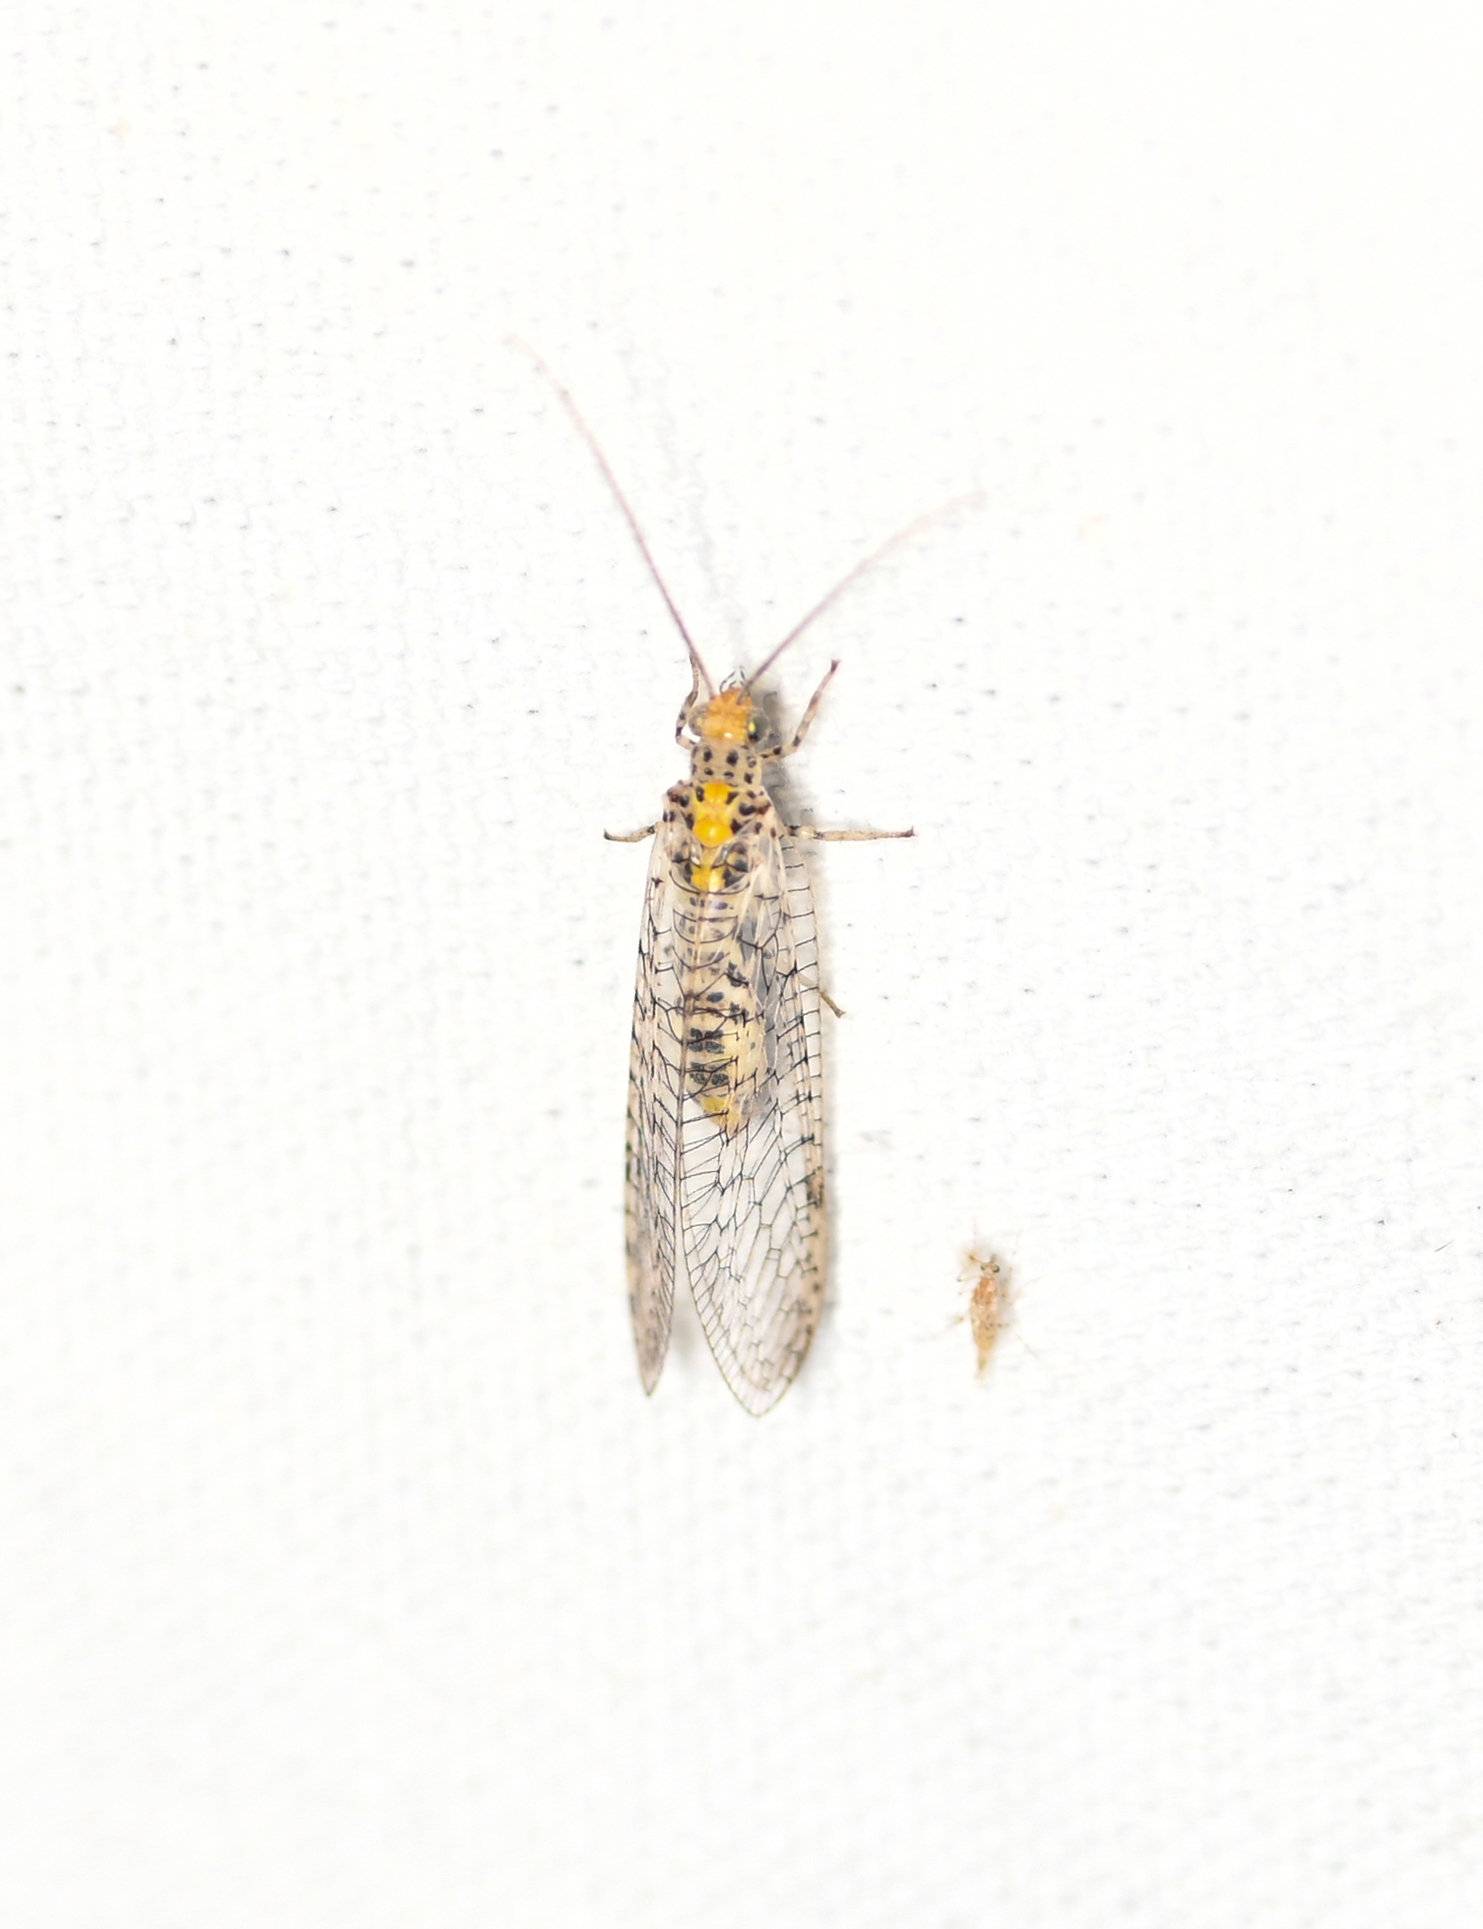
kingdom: Animalia
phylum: Arthropoda
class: Insecta
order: Neuroptera
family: Chrysopidae
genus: Abachrysa
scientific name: Abachrysa eureka
